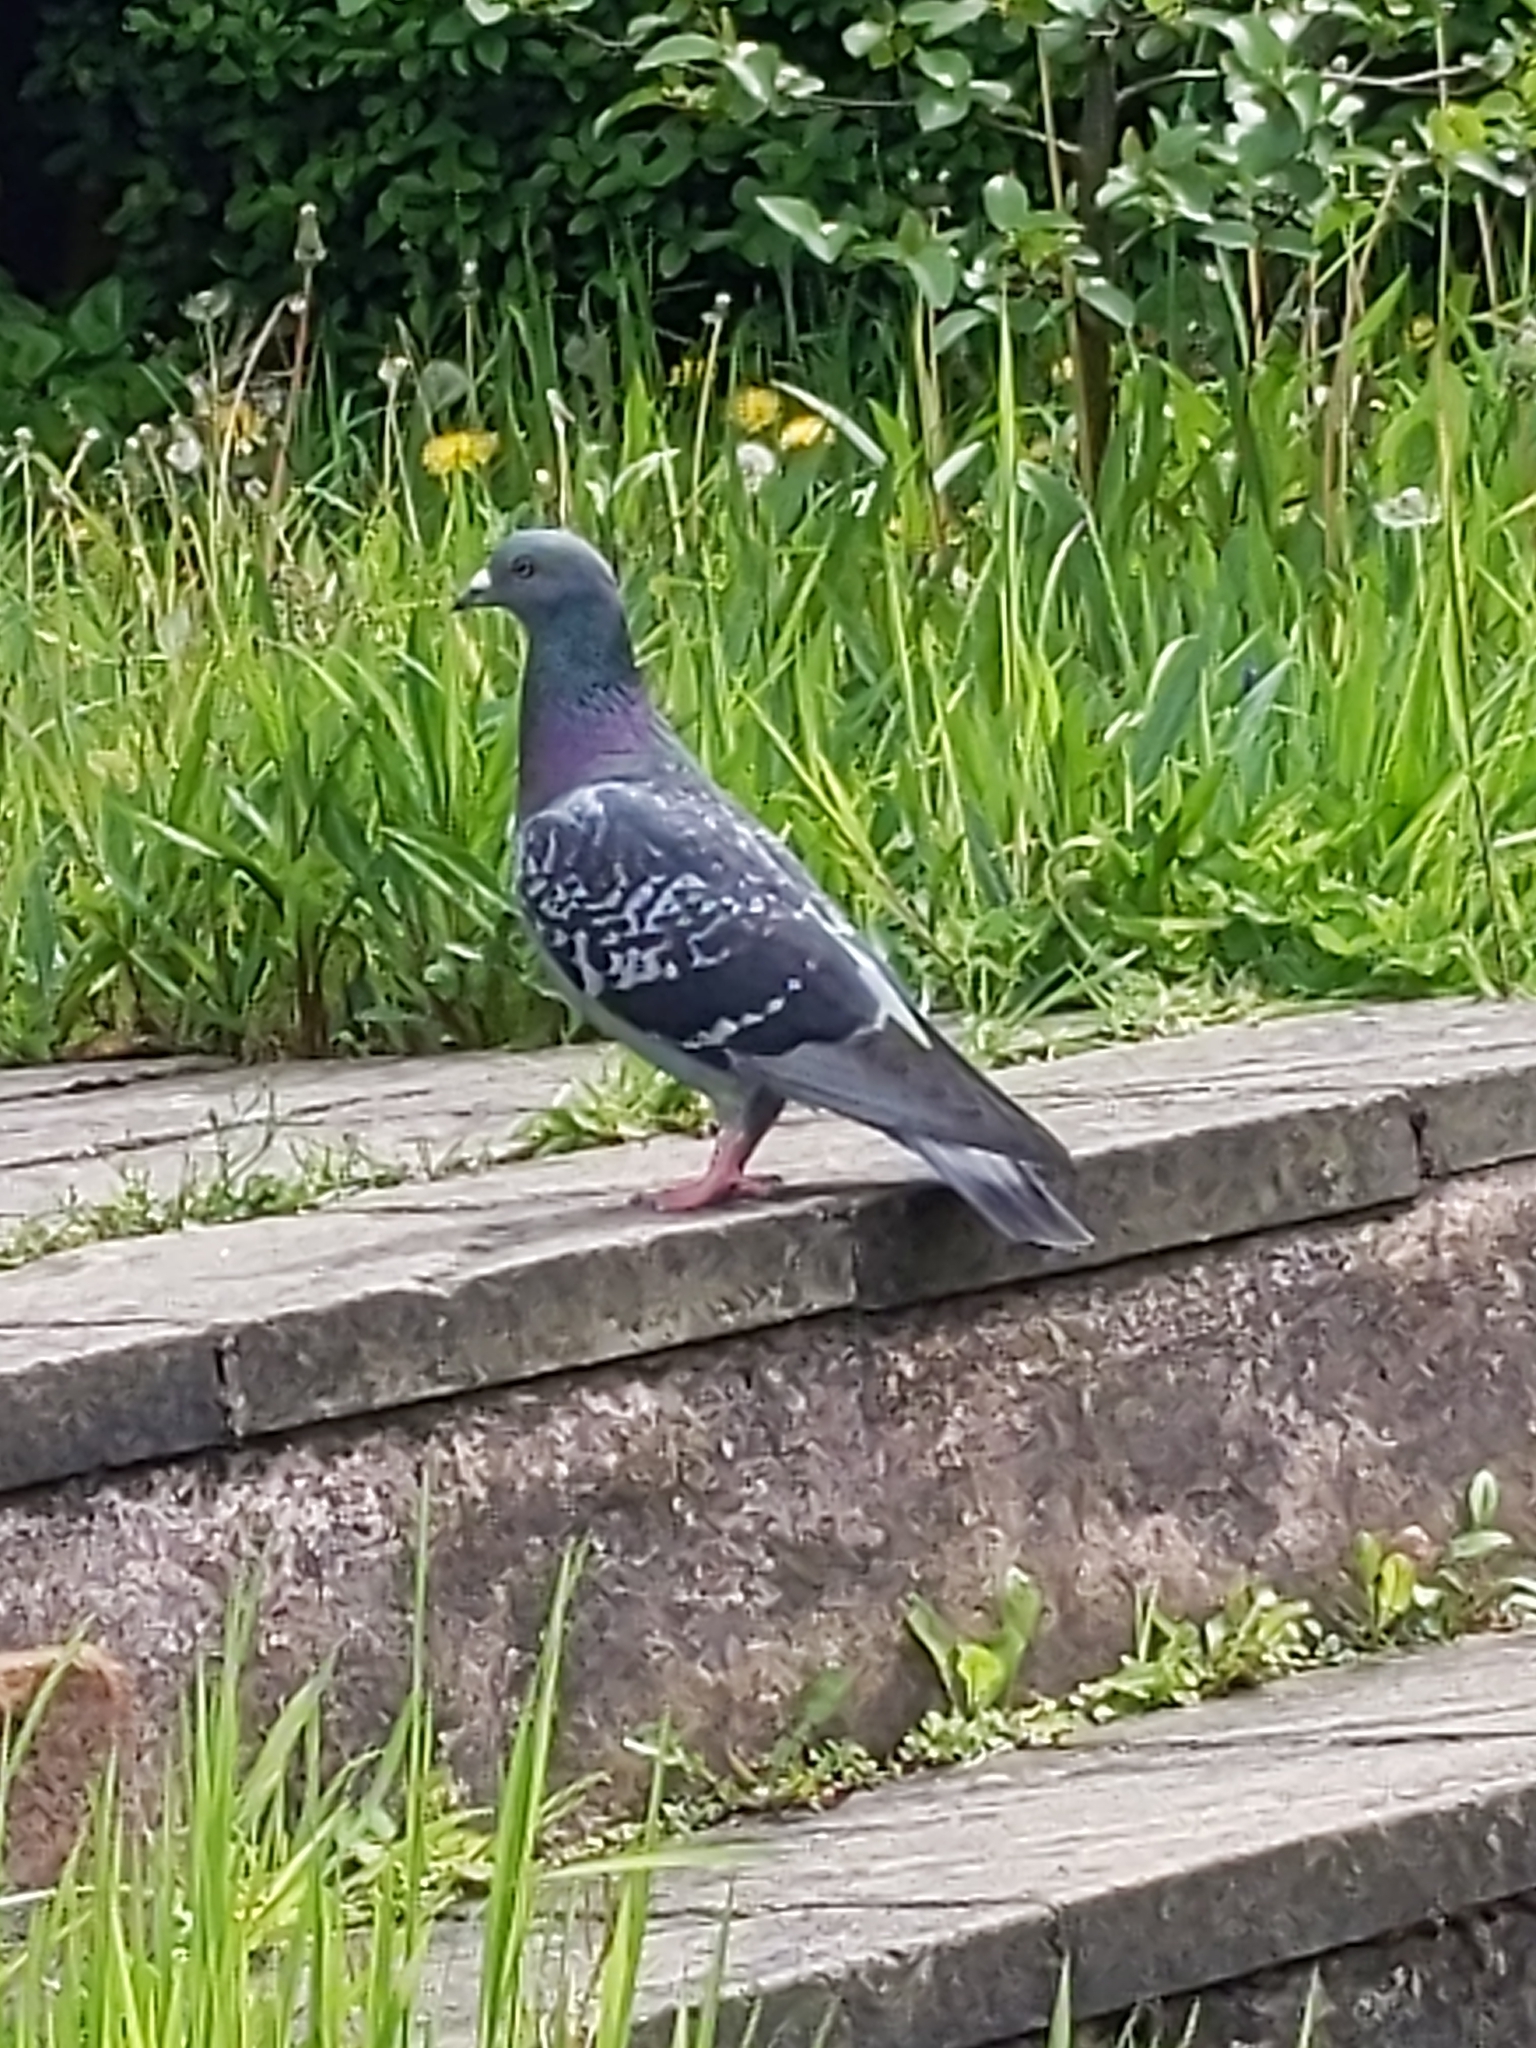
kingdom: Animalia
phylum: Chordata
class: Aves
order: Columbiformes
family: Columbidae
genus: Columba
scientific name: Columba livia
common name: Rock pigeon
